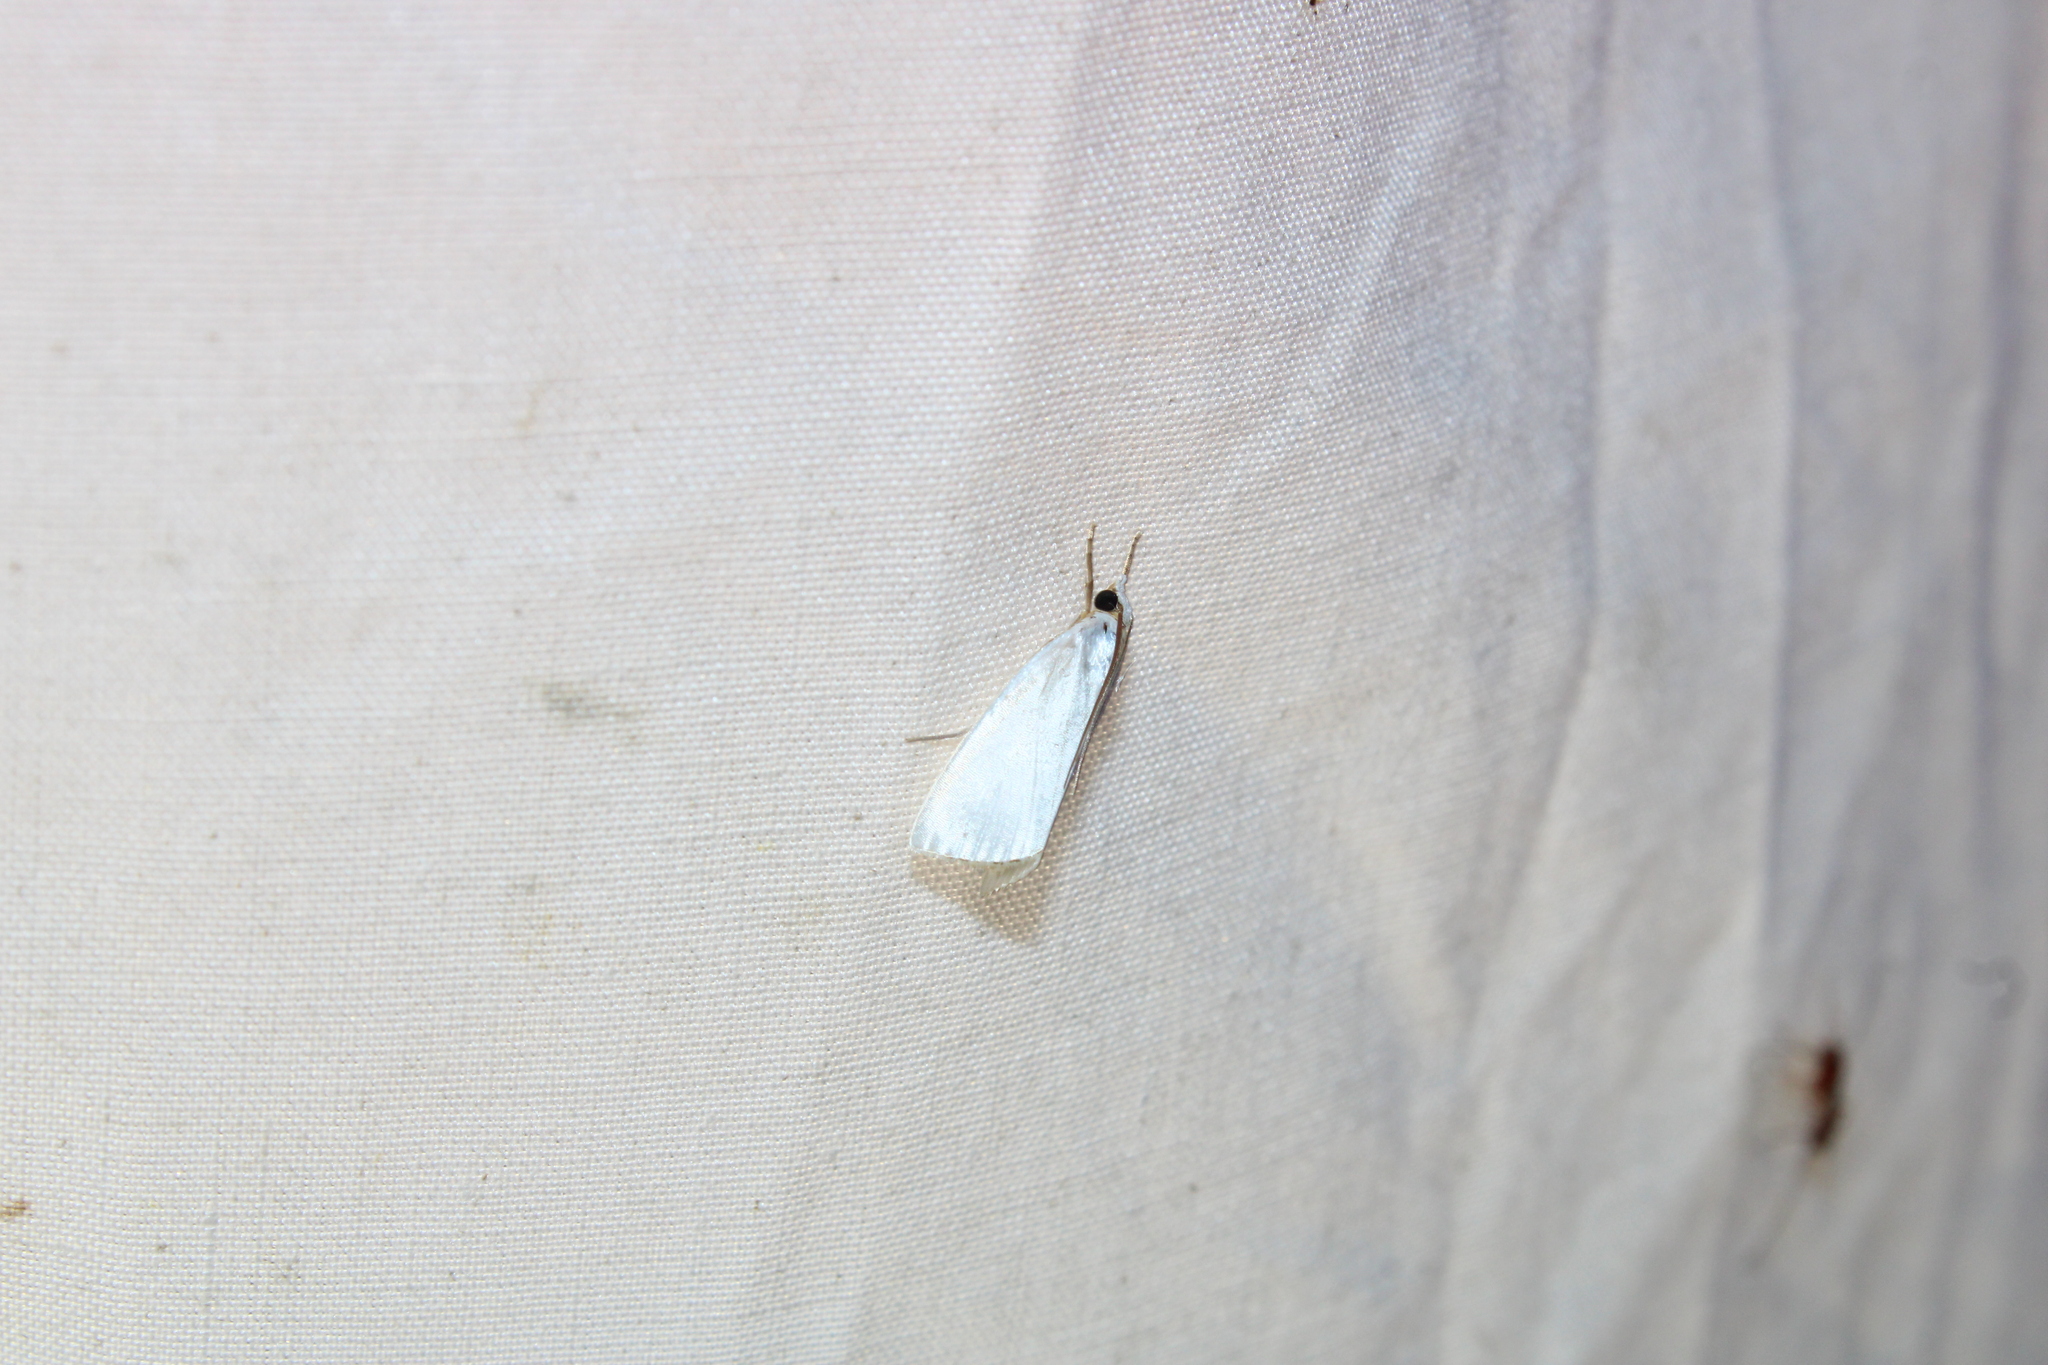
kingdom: Animalia
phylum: Arthropoda
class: Insecta
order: Lepidoptera
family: Crambidae
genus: Argyria
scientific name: Argyria nivalis
